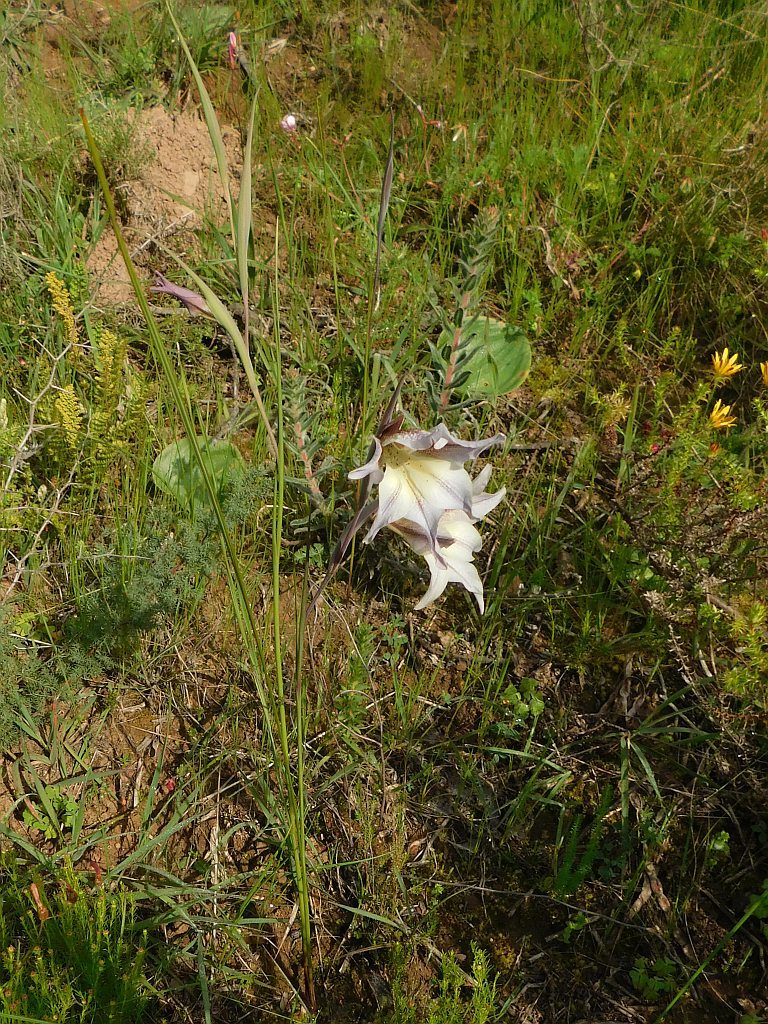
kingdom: Plantae
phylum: Tracheophyta
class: Liliopsida
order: Asparagales
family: Iridaceae
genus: Gladiolus
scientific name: Gladiolus liliaceus
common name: Large brown afrikaner
